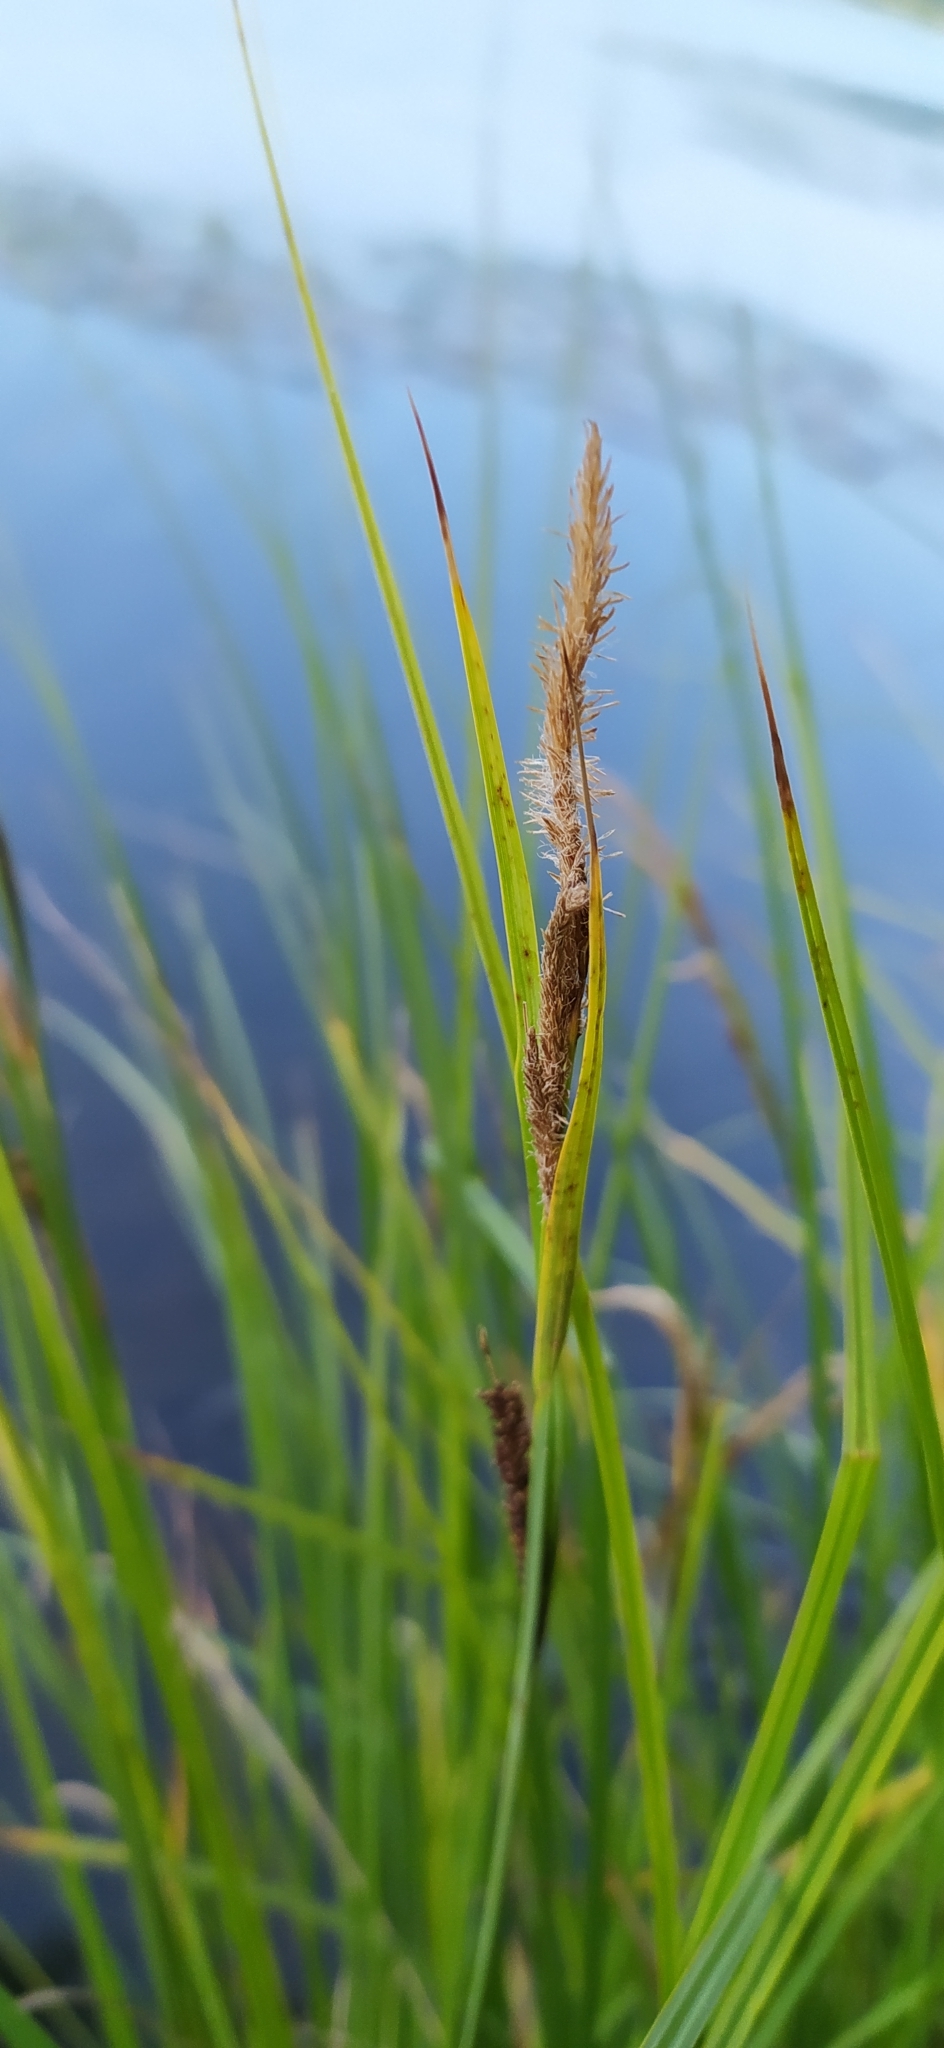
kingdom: Plantae
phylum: Tracheophyta
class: Liliopsida
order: Poales
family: Cyperaceae
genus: Carex
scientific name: Carex aquatilis
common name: Water sedge
